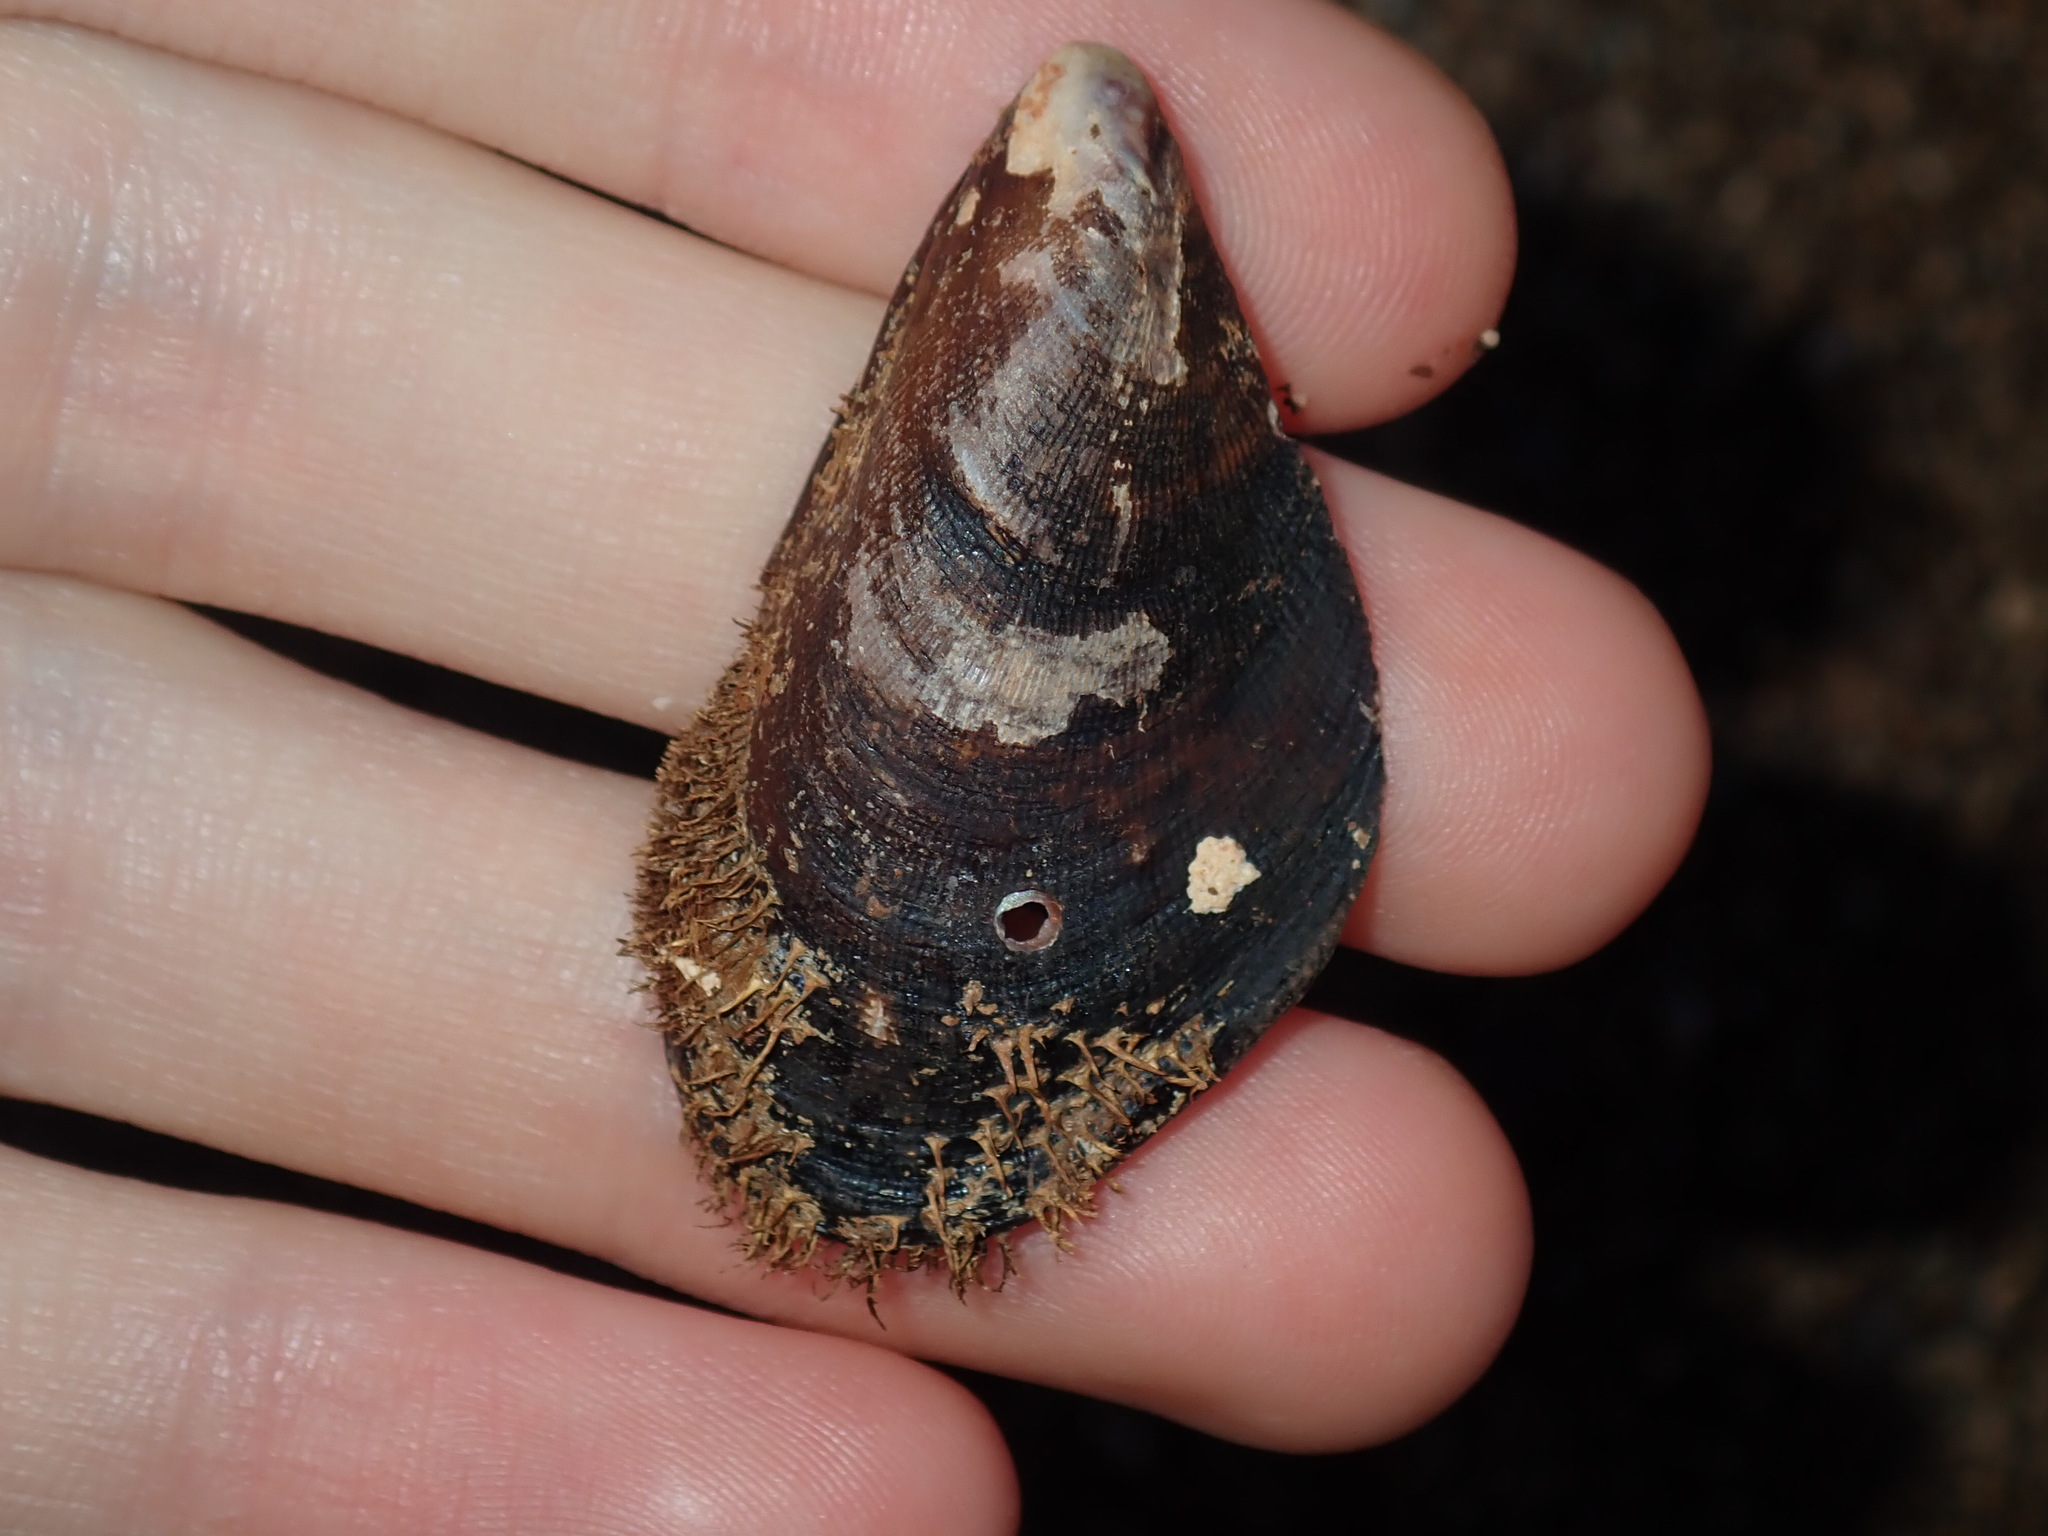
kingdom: Animalia
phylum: Mollusca
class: Bivalvia
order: Mytilida
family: Mytilidae
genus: Trichomya
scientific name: Trichomya hirsuta
